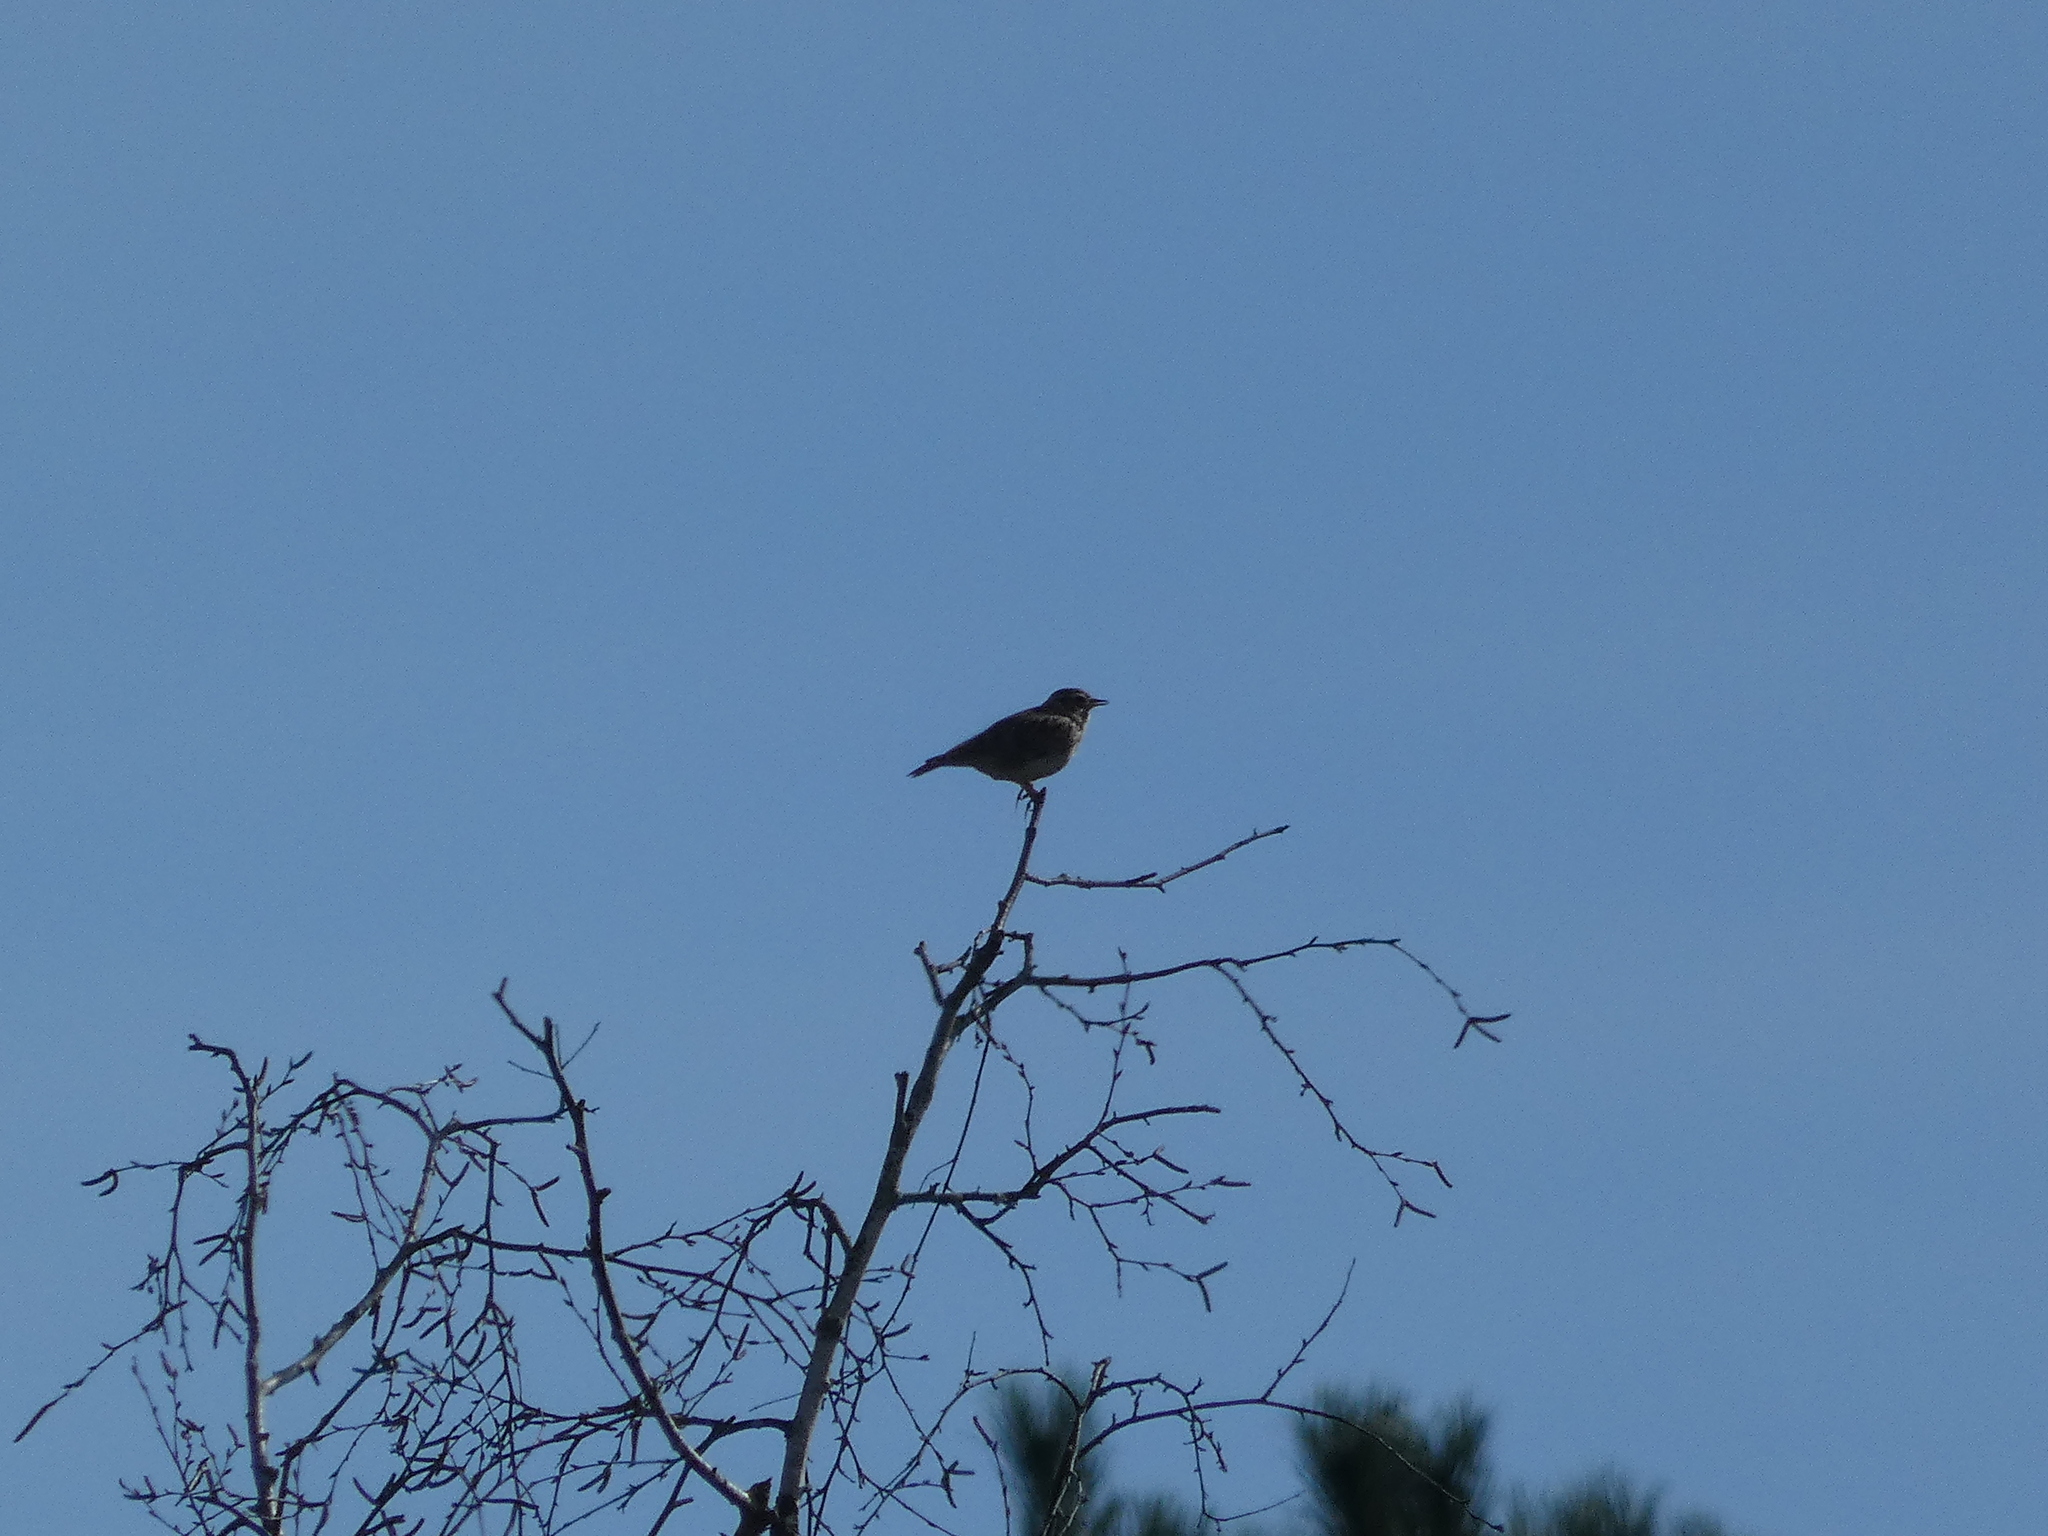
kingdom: Animalia
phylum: Chordata
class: Aves
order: Passeriformes
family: Alaudidae
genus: Lullula
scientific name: Lullula arborea
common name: Woodlark
